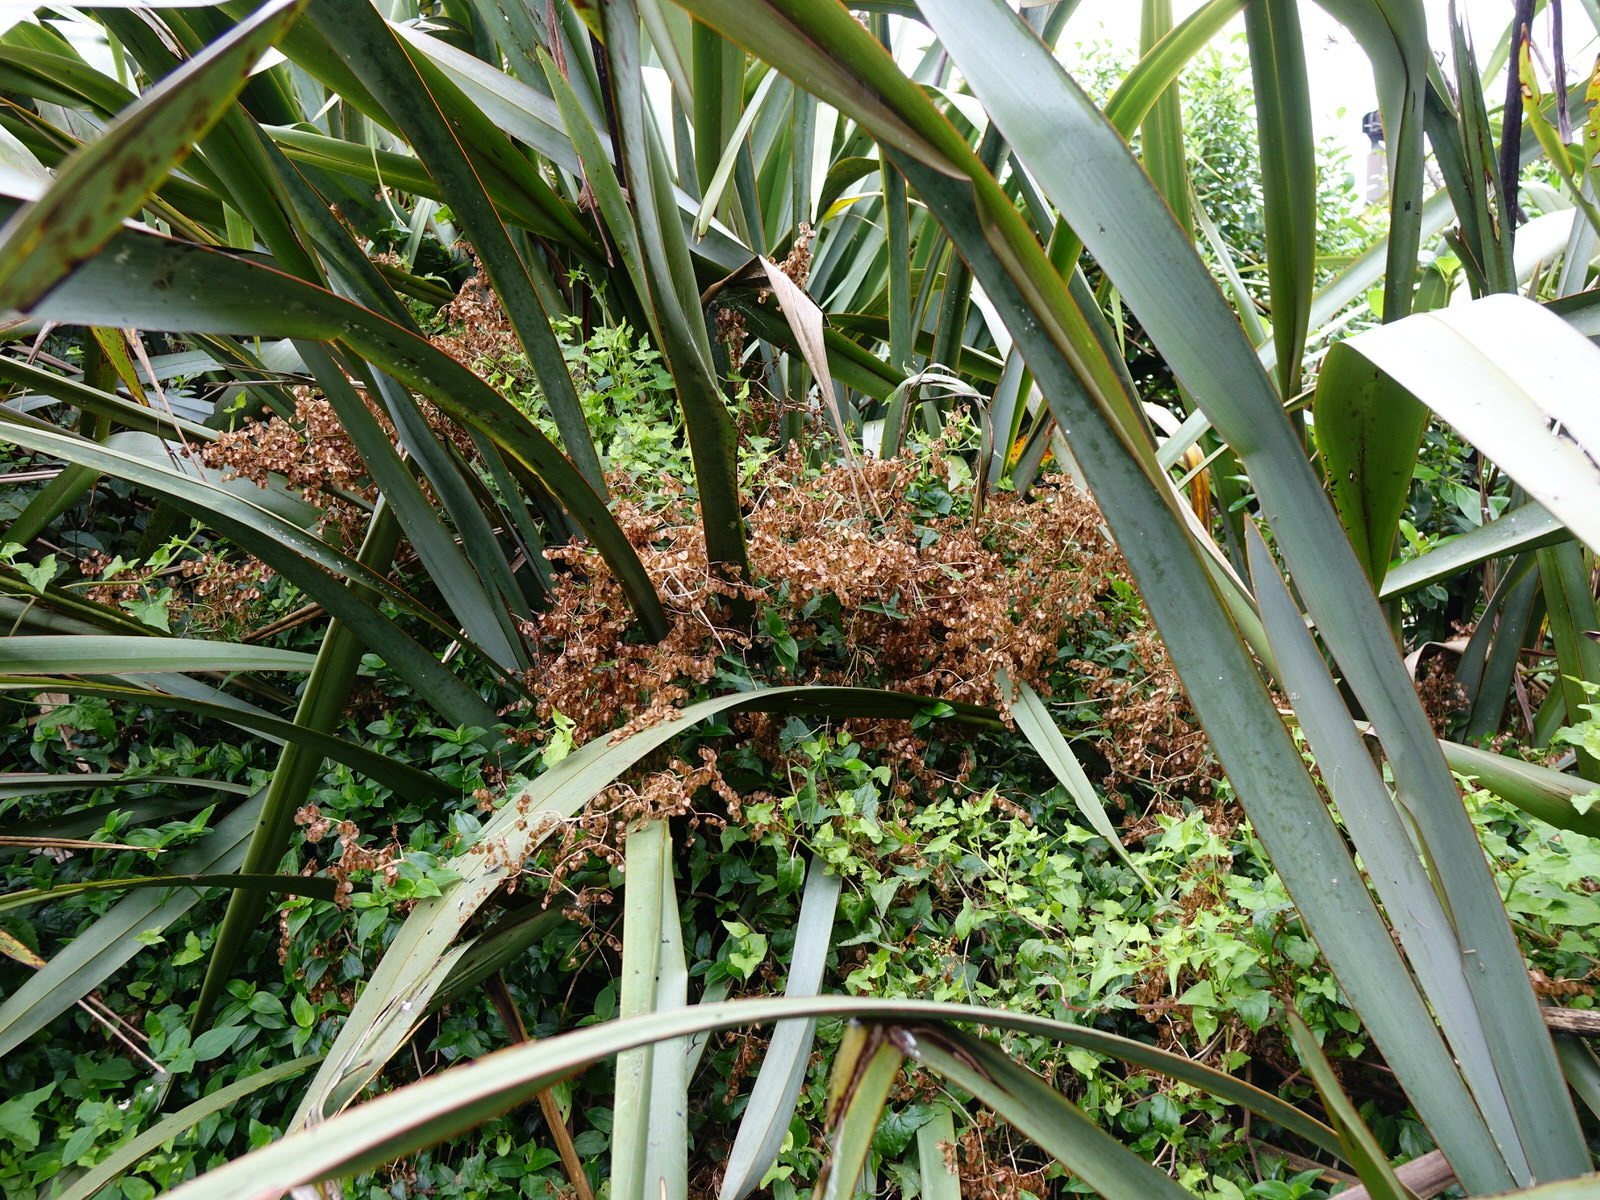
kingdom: Plantae
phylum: Tracheophyta
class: Magnoliopsida
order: Caryophyllales
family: Polygonaceae
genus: Rumex
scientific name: Rumex sagittatus
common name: Climbing dock
